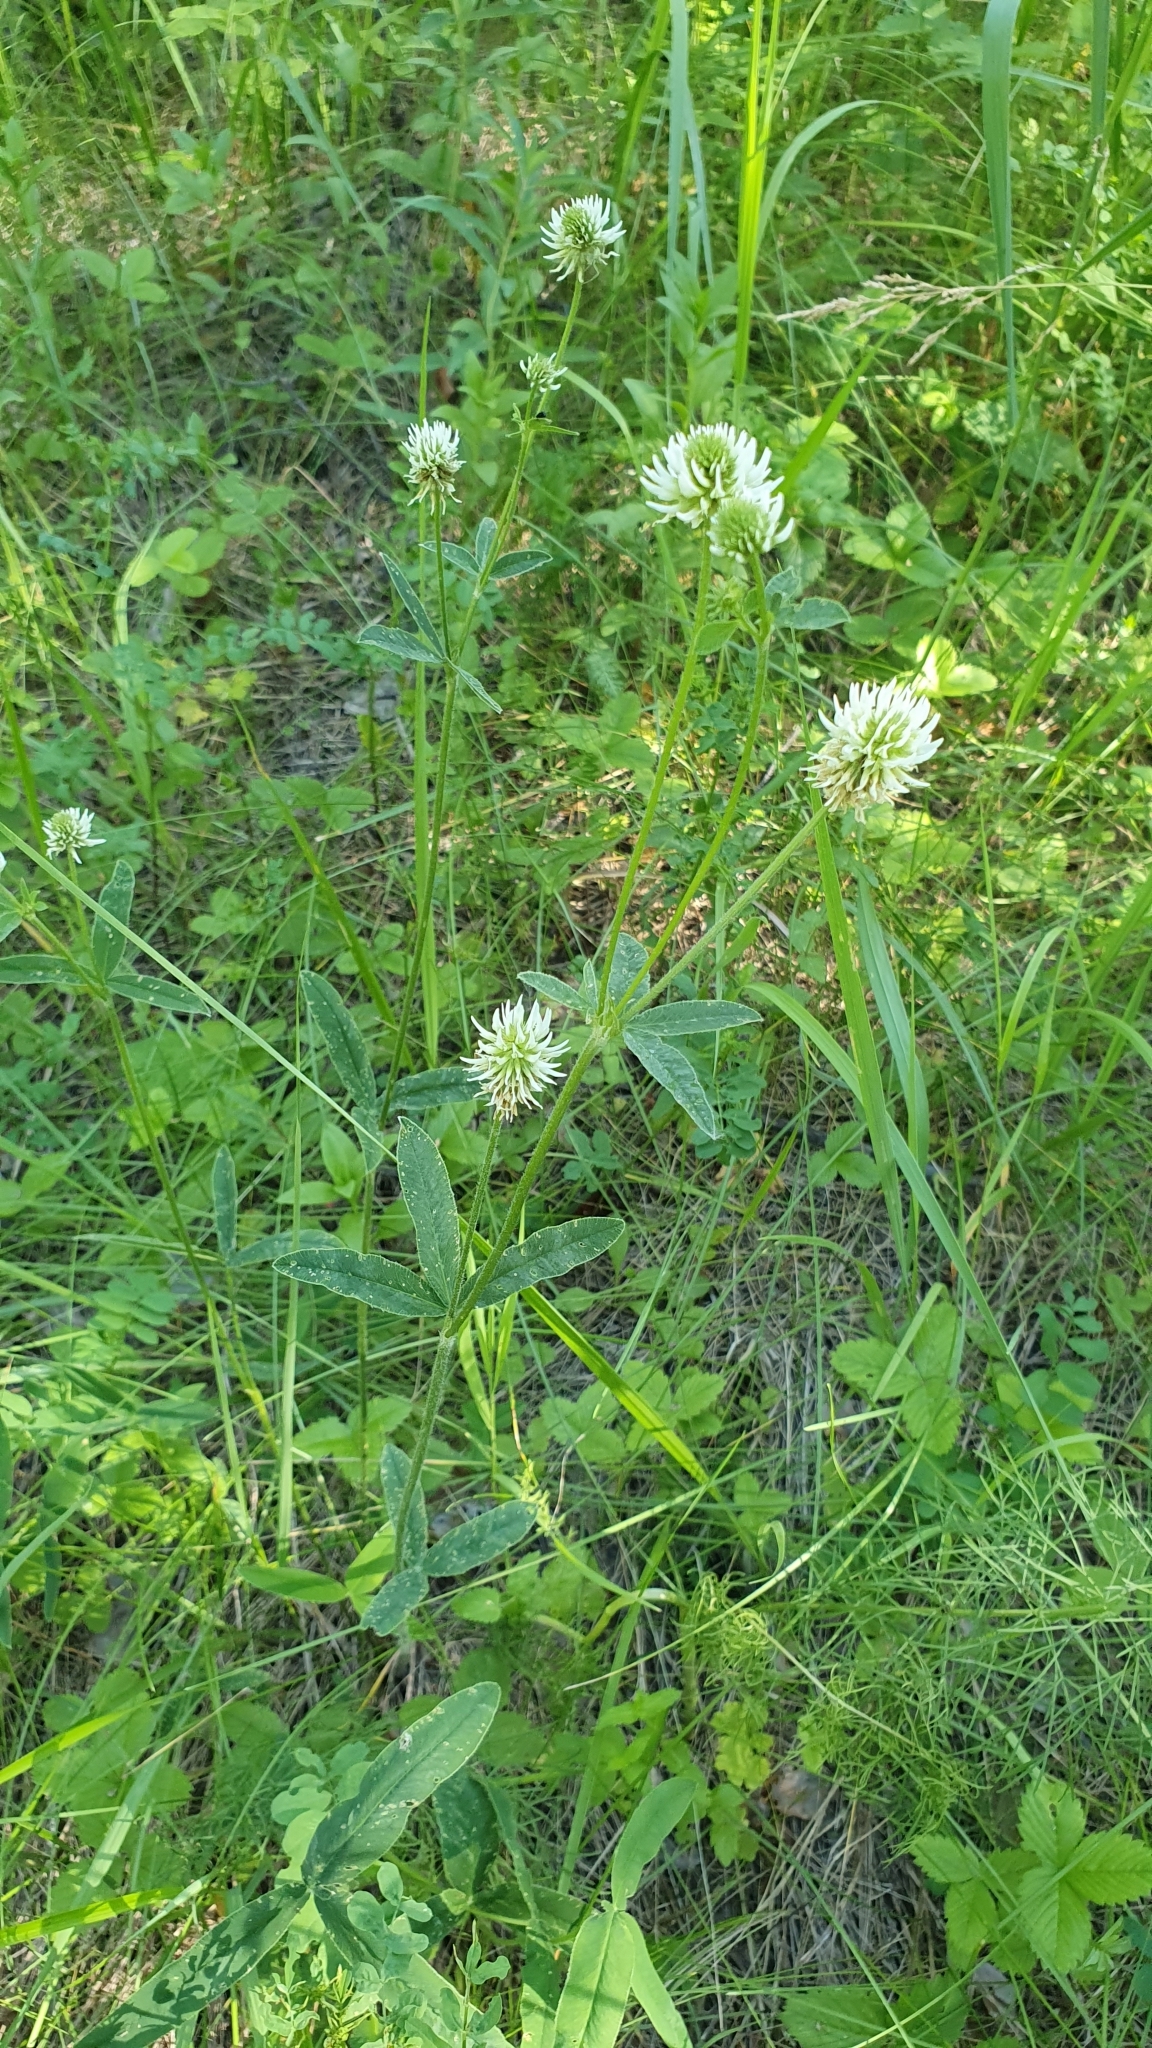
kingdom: Plantae
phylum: Tracheophyta
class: Magnoliopsida
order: Fabales
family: Fabaceae
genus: Trifolium
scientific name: Trifolium montanum
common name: Mountain clover
